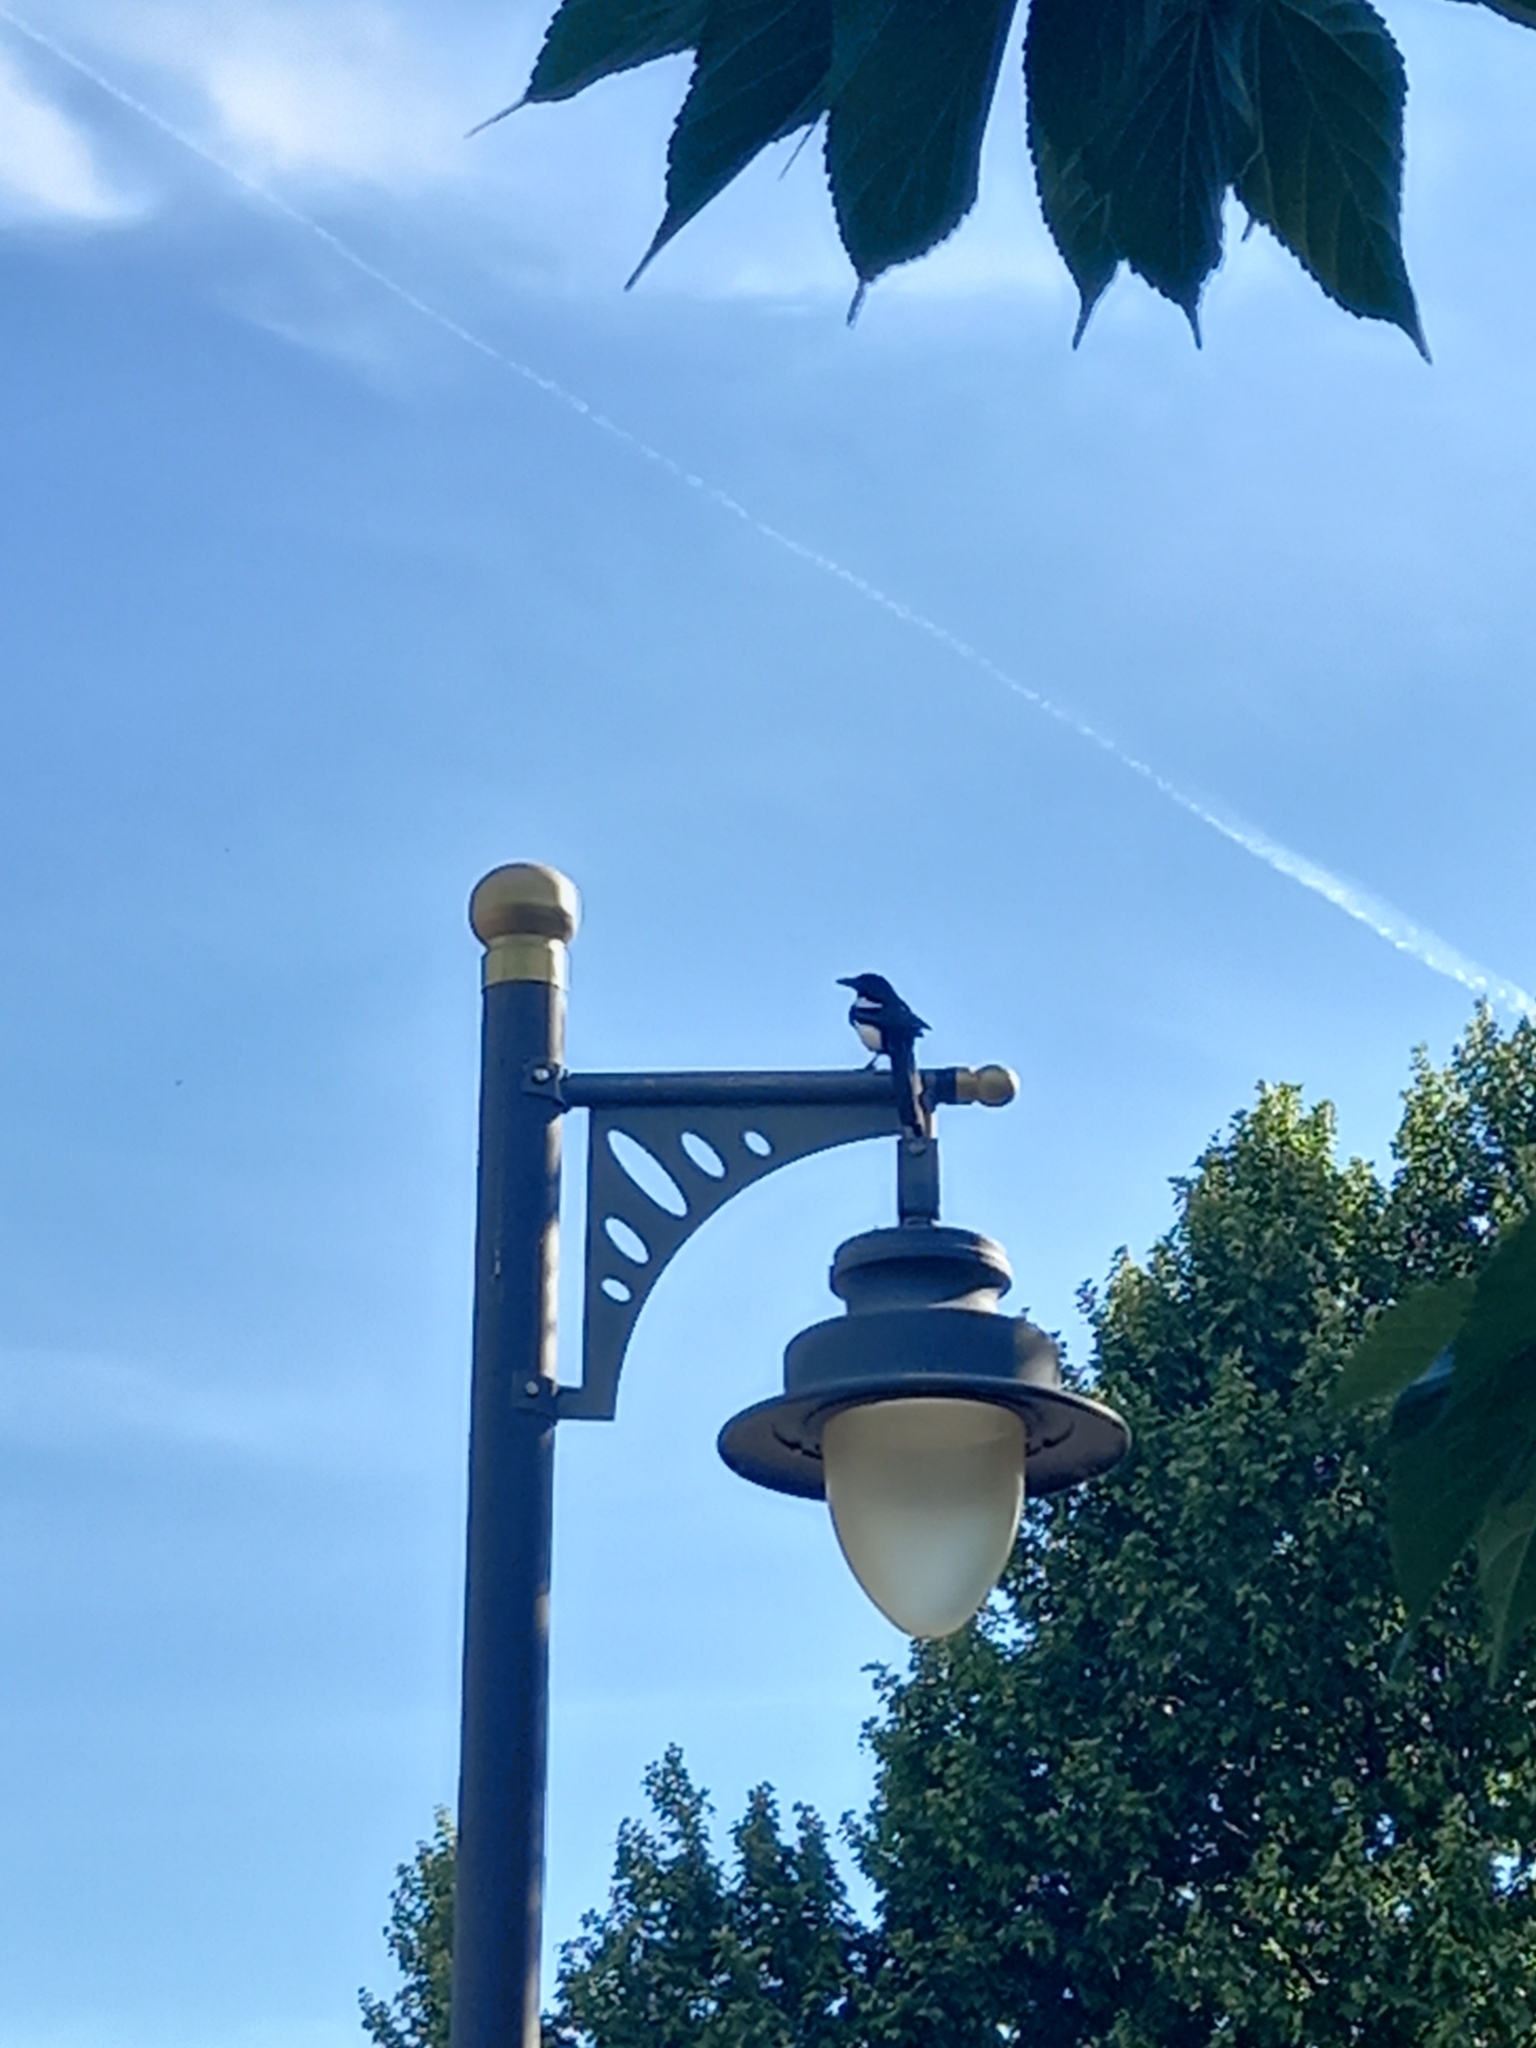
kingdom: Animalia
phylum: Chordata
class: Aves
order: Passeriformes
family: Corvidae
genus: Pica
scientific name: Pica pica
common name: Eurasian magpie
